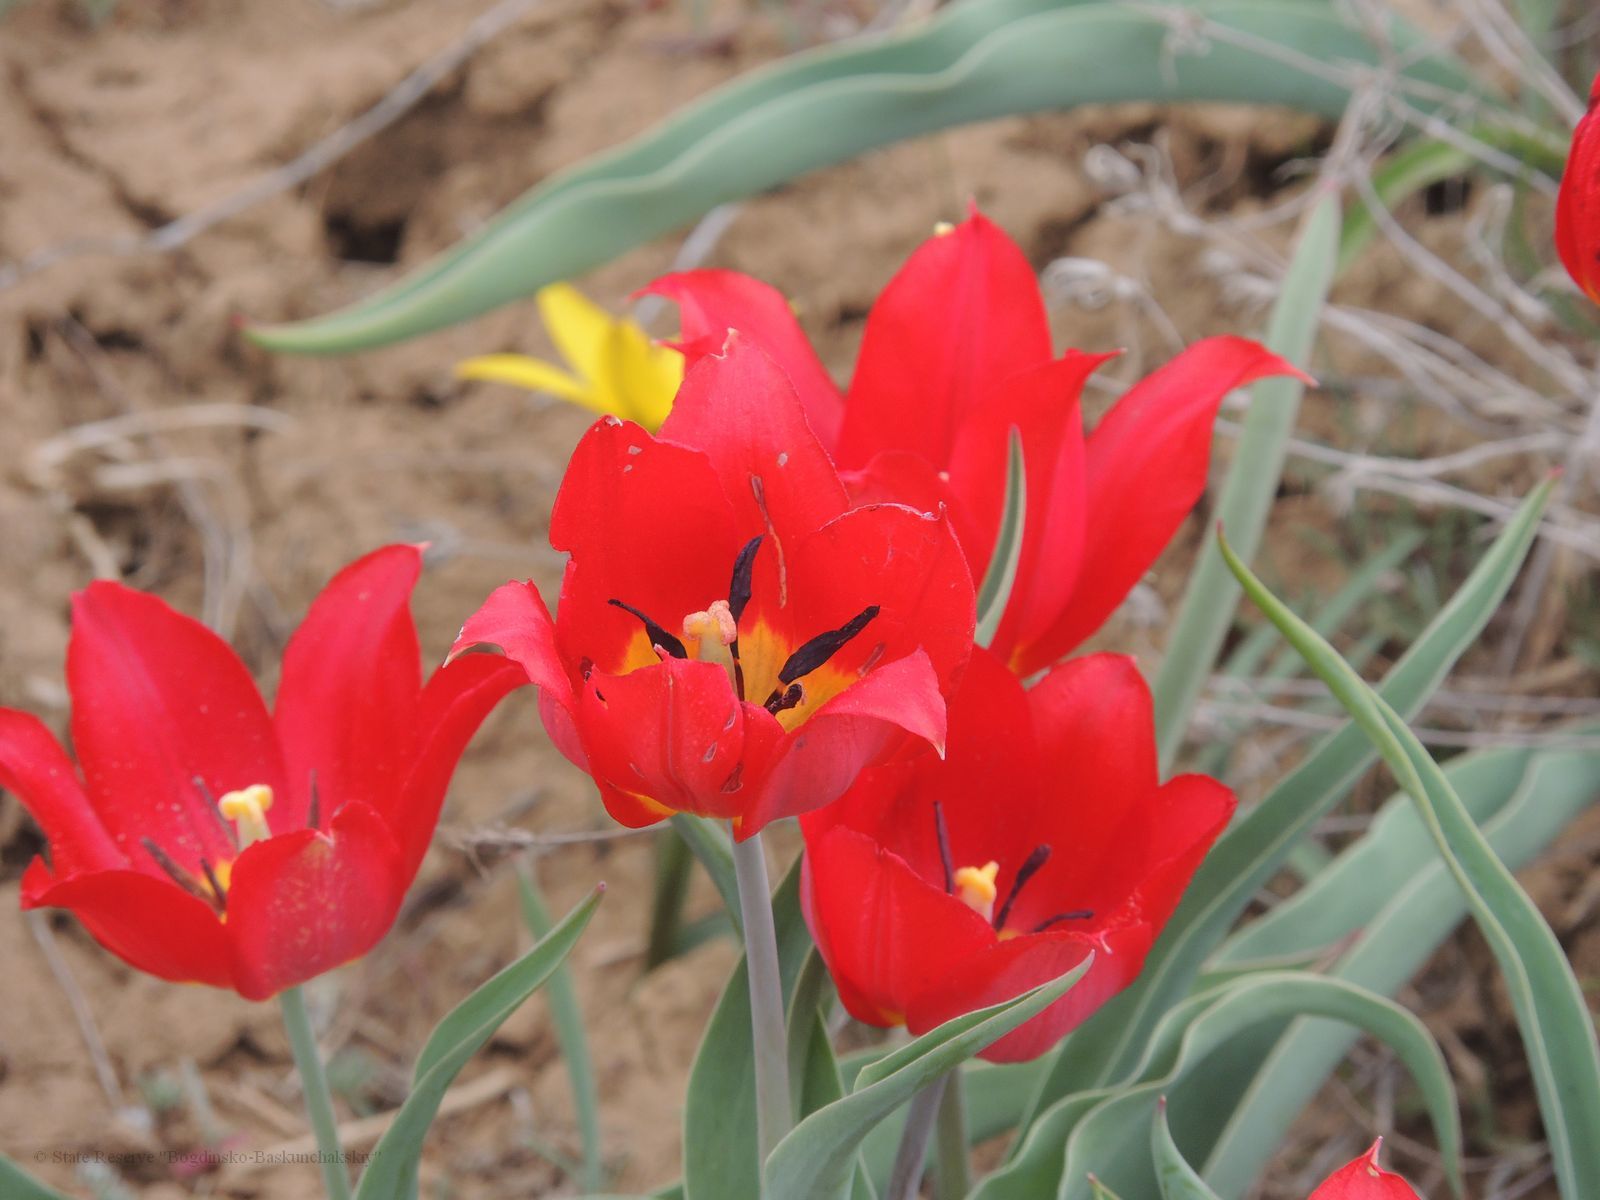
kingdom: Plantae
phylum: Tracheophyta
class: Liliopsida
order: Liliales
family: Liliaceae
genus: Tulipa
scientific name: Tulipa suaveolens
